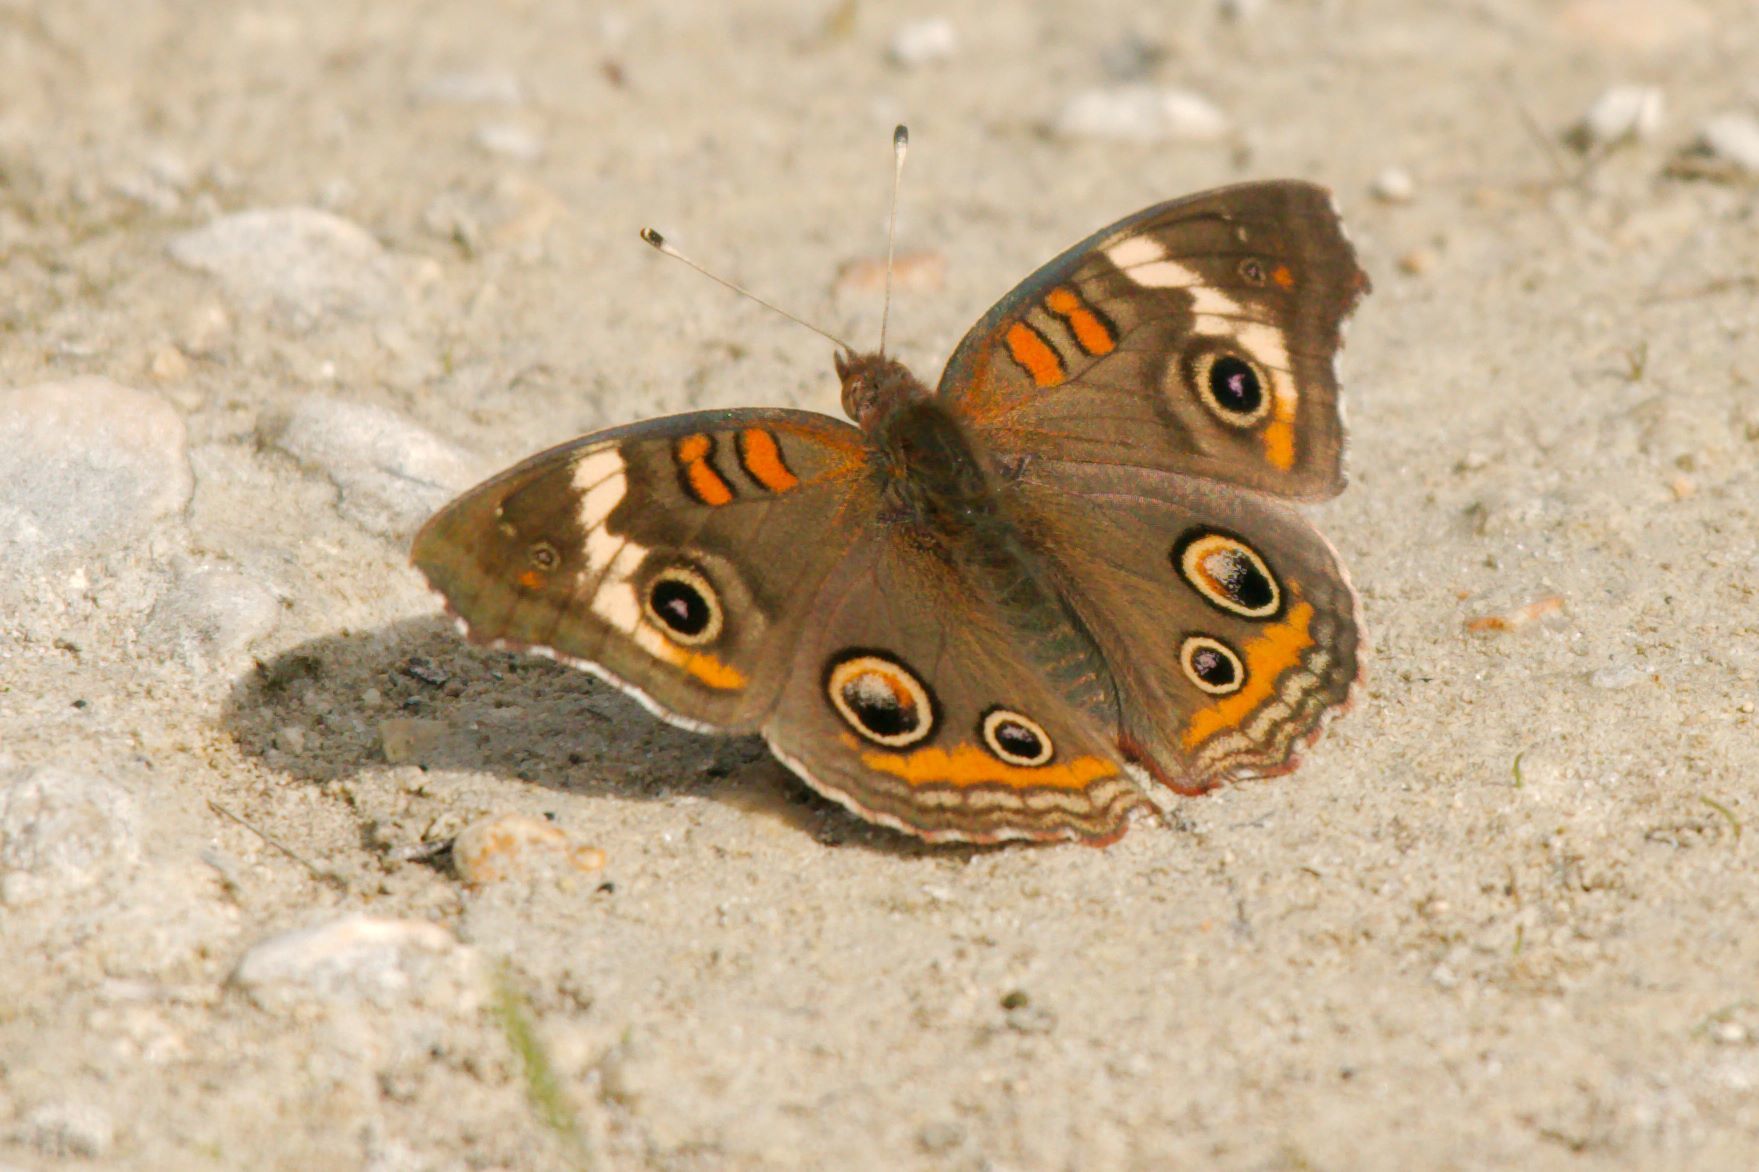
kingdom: Animalia
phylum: Arthropoda
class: Insecta
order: Lepidoptera
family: Nymphalidae
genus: Junonia
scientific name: Junonia coenia
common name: Common buckeye
